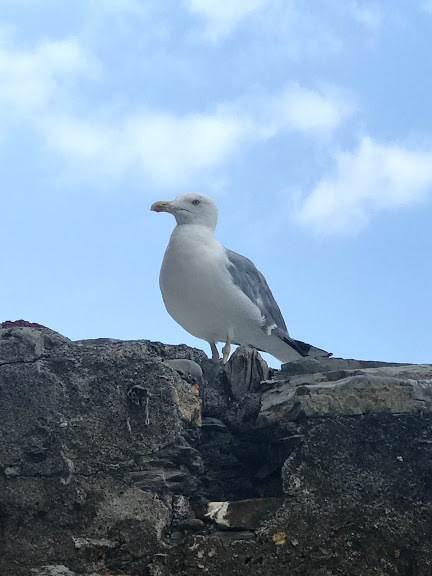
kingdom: Animalia
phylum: Chordata
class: Aves
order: Charadriiformes
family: Laridae
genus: Larus
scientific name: Larus michahellis
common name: Yellow-legged gull
